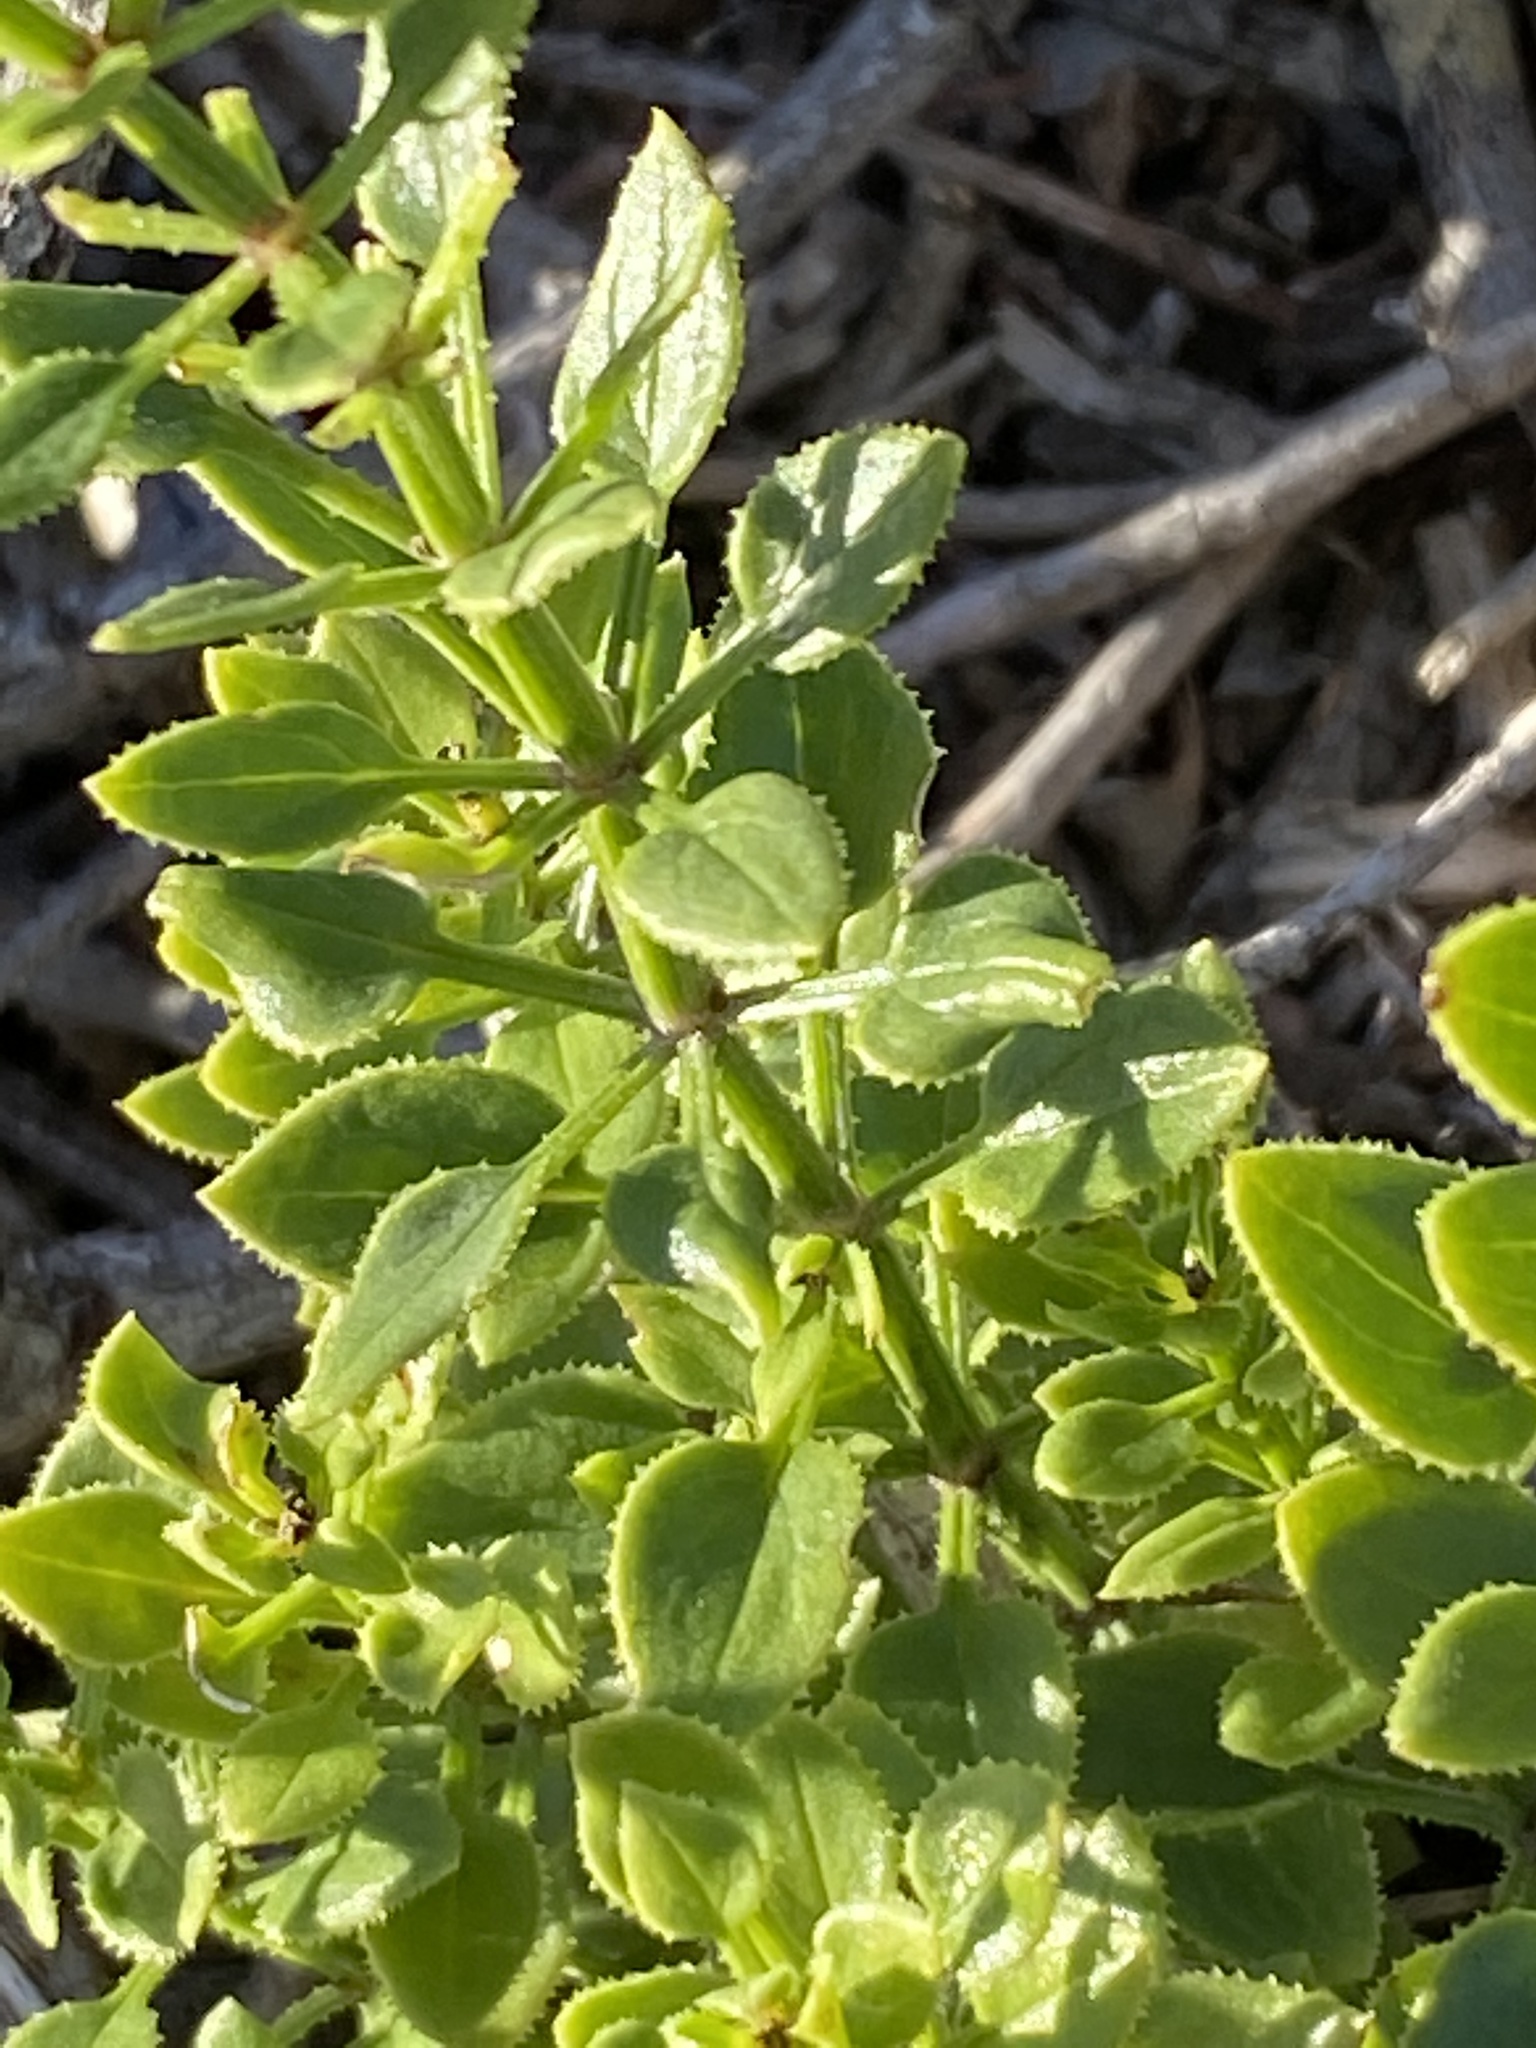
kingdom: Plantae
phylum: Tracheophyta
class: Magnoliopsida
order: Gentianales
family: Rubiaceae
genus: Rubia
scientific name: Rubia petiolaris
